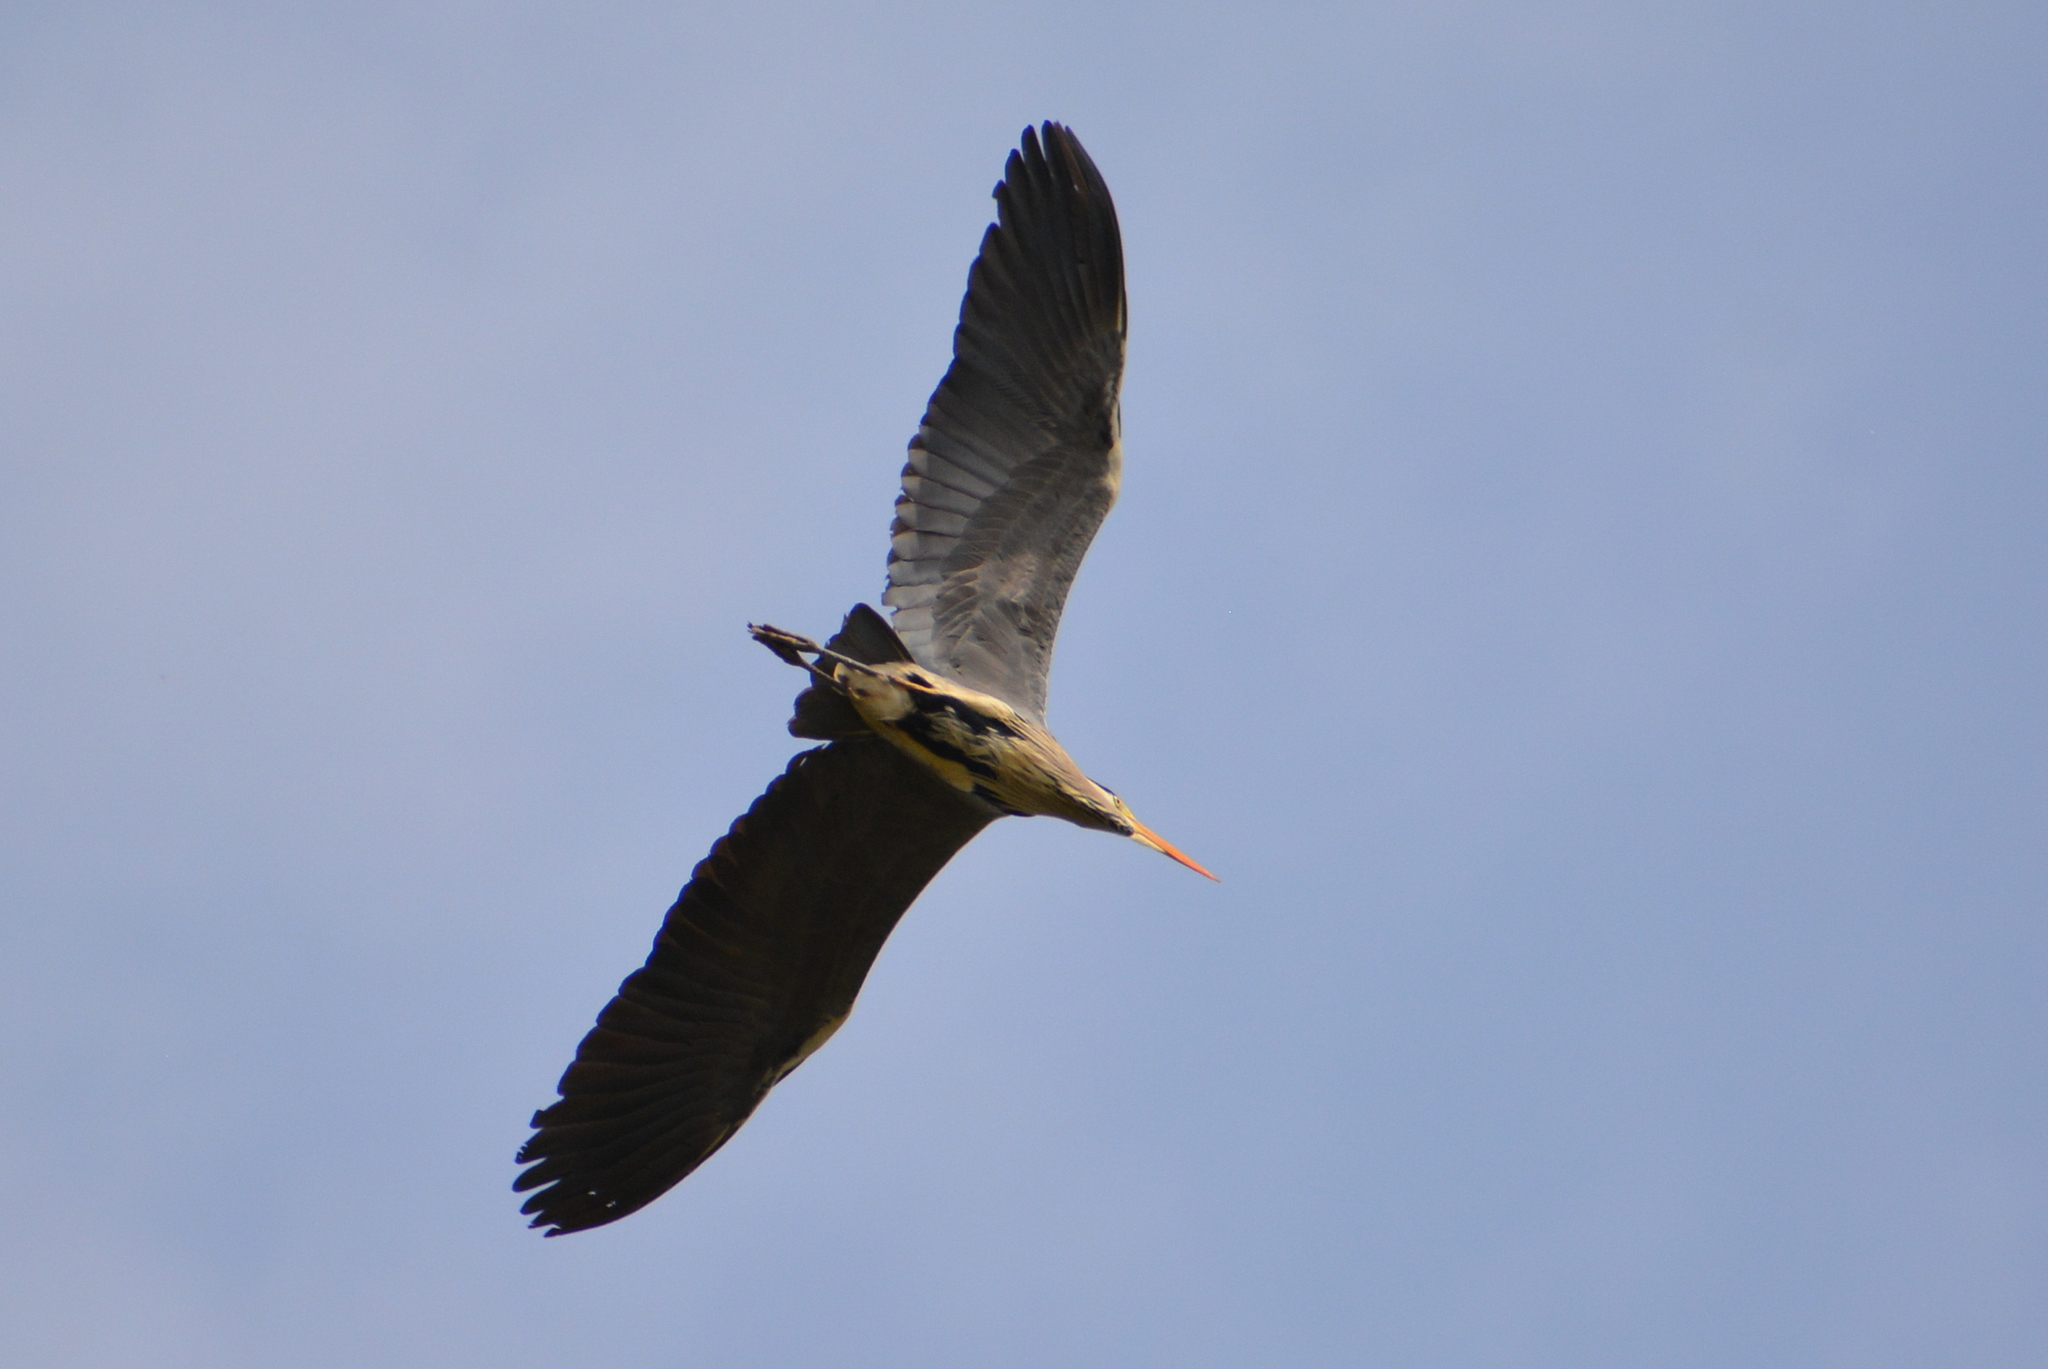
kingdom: Animalia
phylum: Chordata
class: Aves
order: Pelecaniformes
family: Ardeidae
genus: Ardea
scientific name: Ardea cinerea
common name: Grey heron
